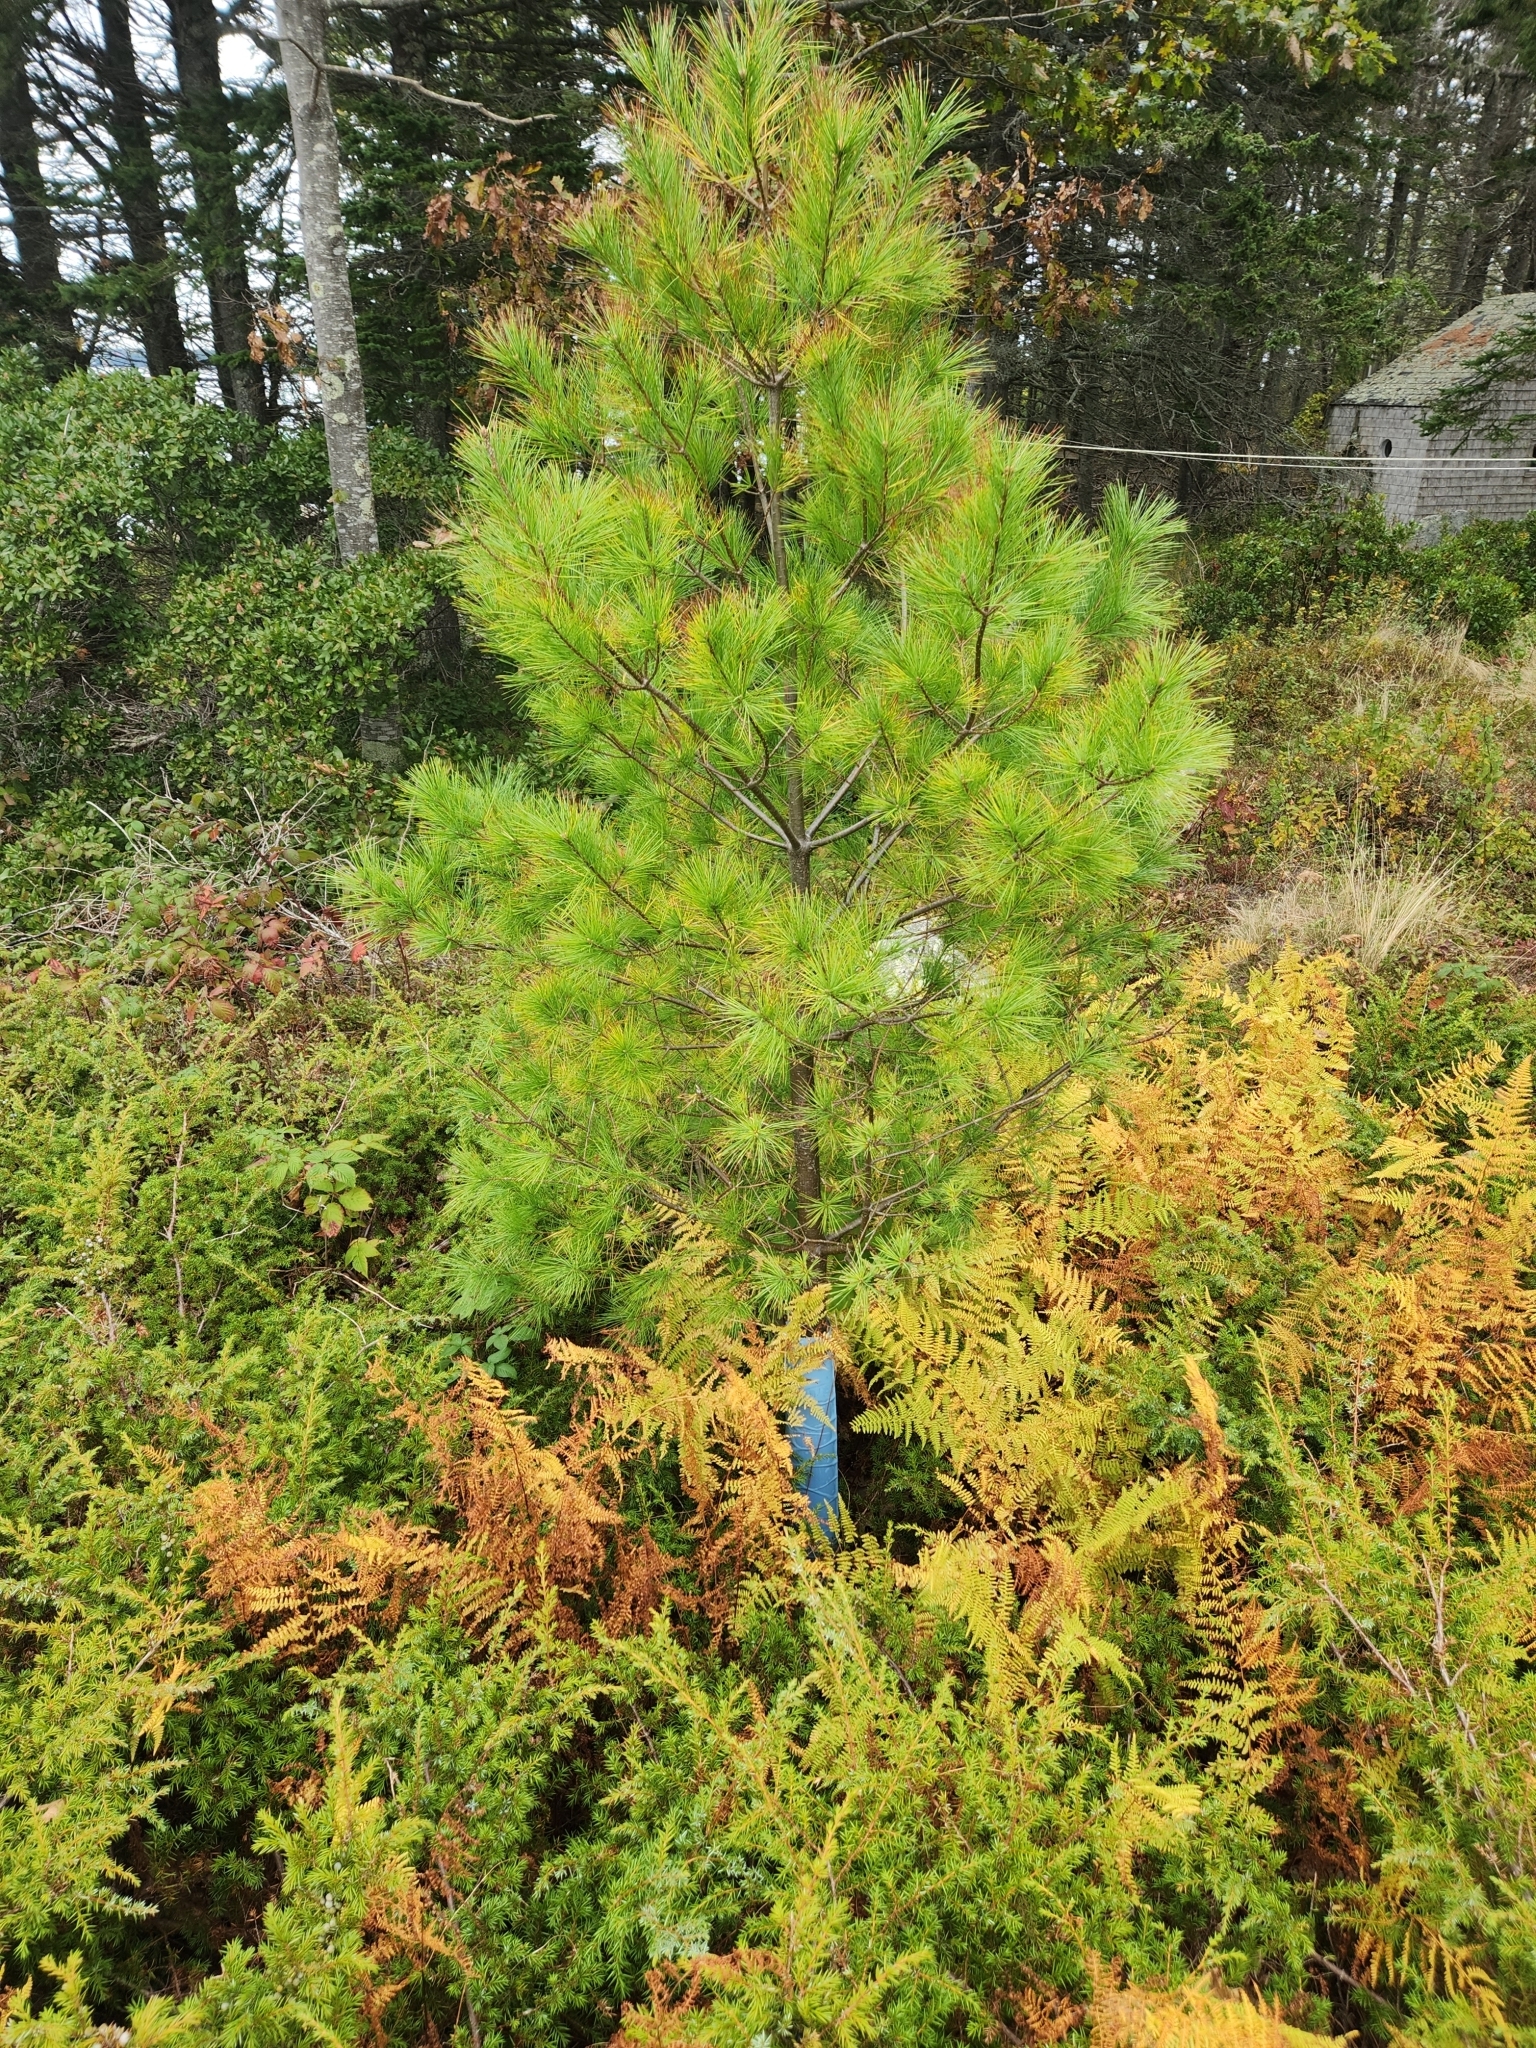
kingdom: Plantae
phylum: Tracheophyta
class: Pinopsida
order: Pinales
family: Pinaceae
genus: Pinus
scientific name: Pinus strobus
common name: Weymouth pine
